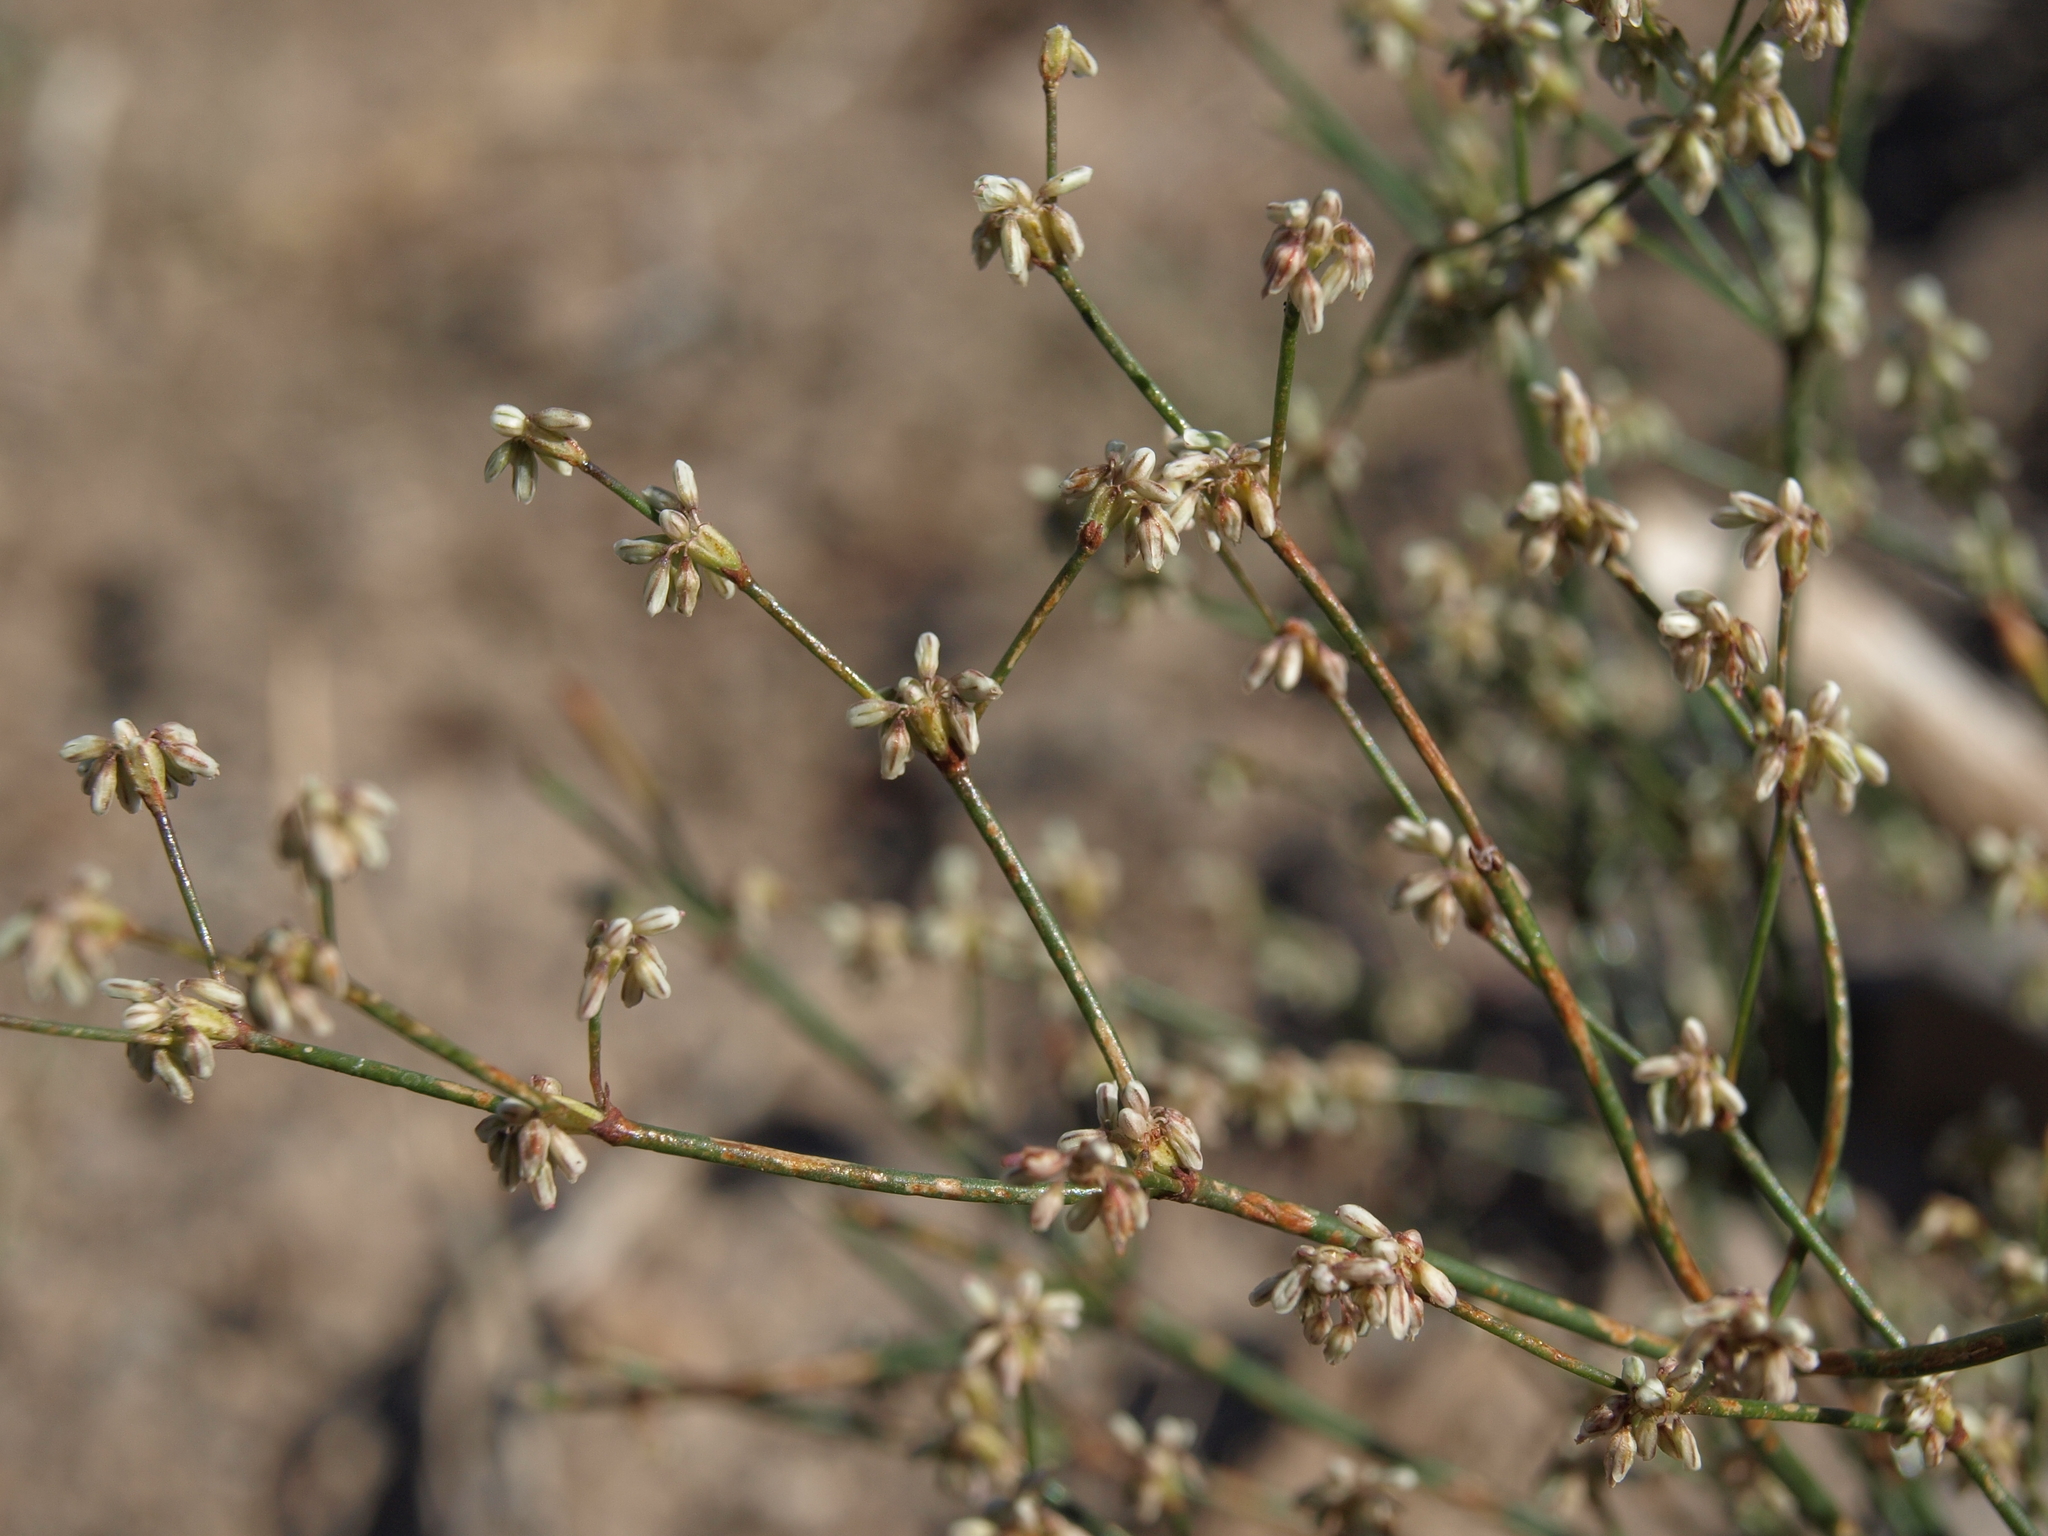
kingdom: Plantae
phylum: Tracheophyta
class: Magnoliopsida
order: Caryophyllales
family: Polygonaceae
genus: Eriogonum
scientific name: Eriogonum baileyi
